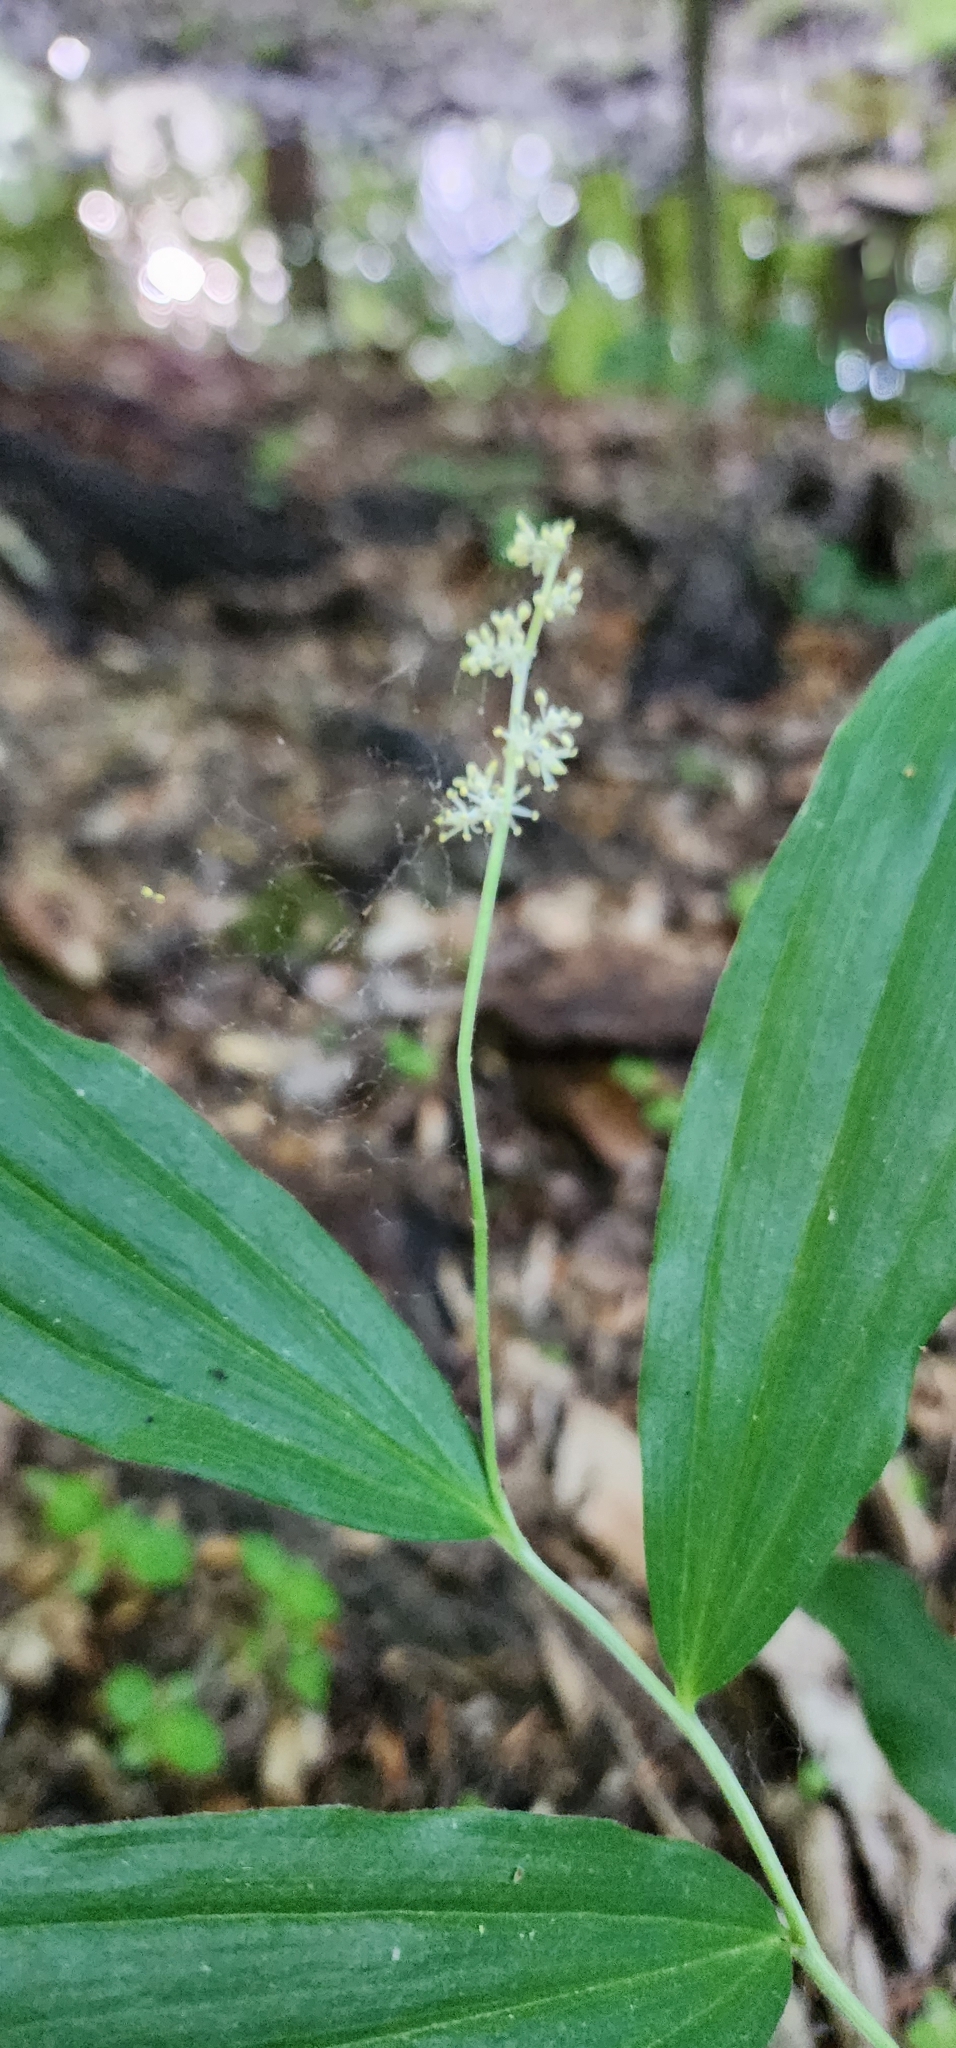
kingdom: Plantae
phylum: Tracheophyta
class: Liliopsida
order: Asparagales
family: Asparagaceae
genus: Maianthemum
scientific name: Maianthemum racemosum
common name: False spikenard
